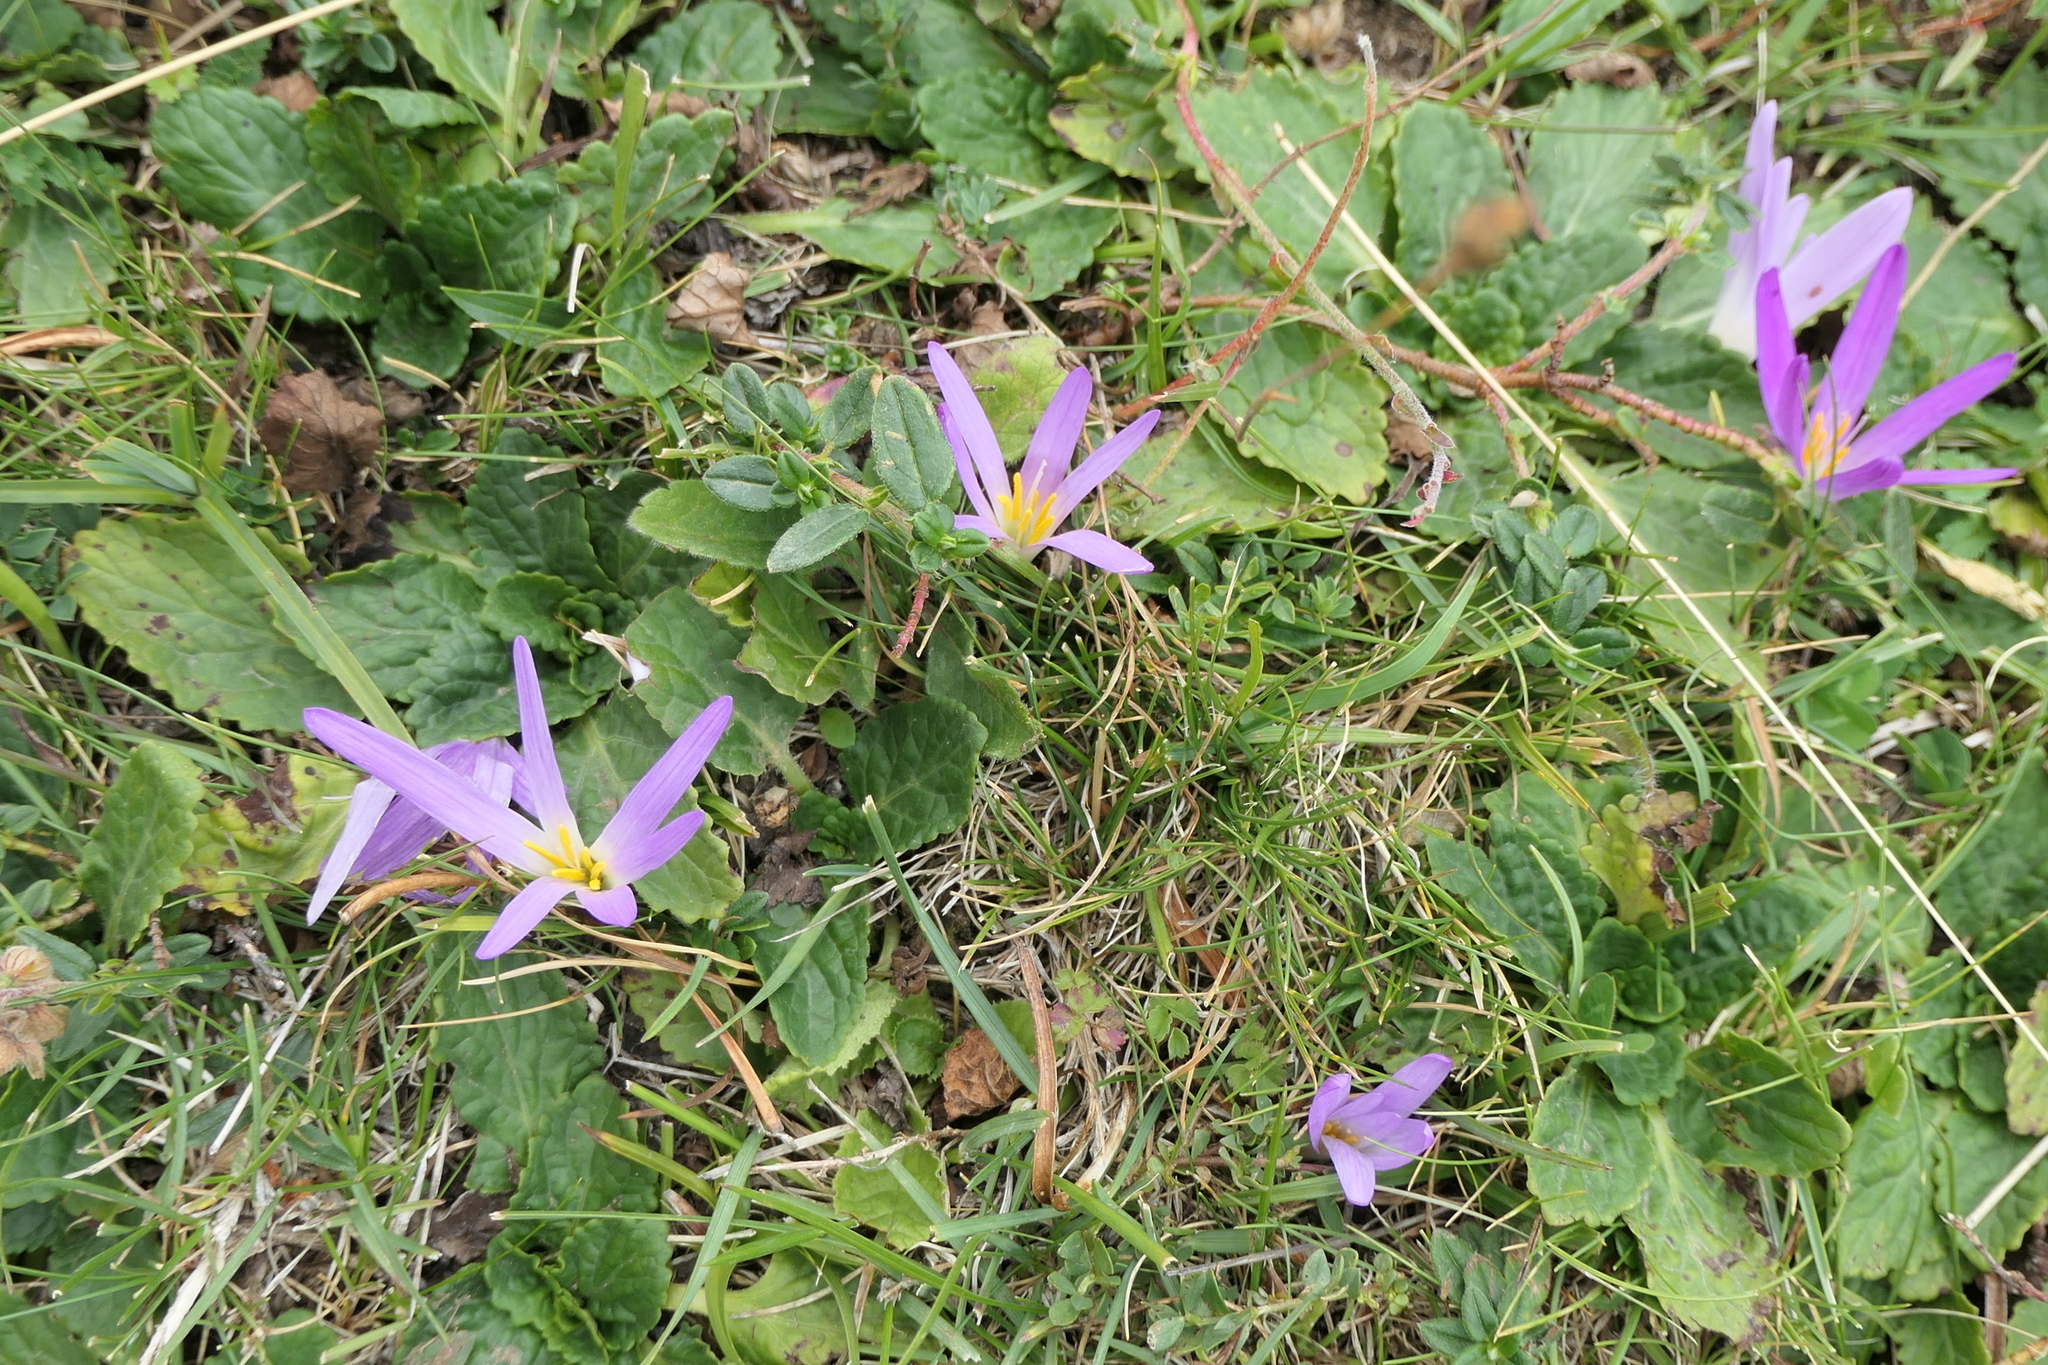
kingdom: Plantae
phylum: Tracheophyta
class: Liliopsida
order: Liliales
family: Colchicaceae
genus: Colchicum
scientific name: Colchicum montanum
